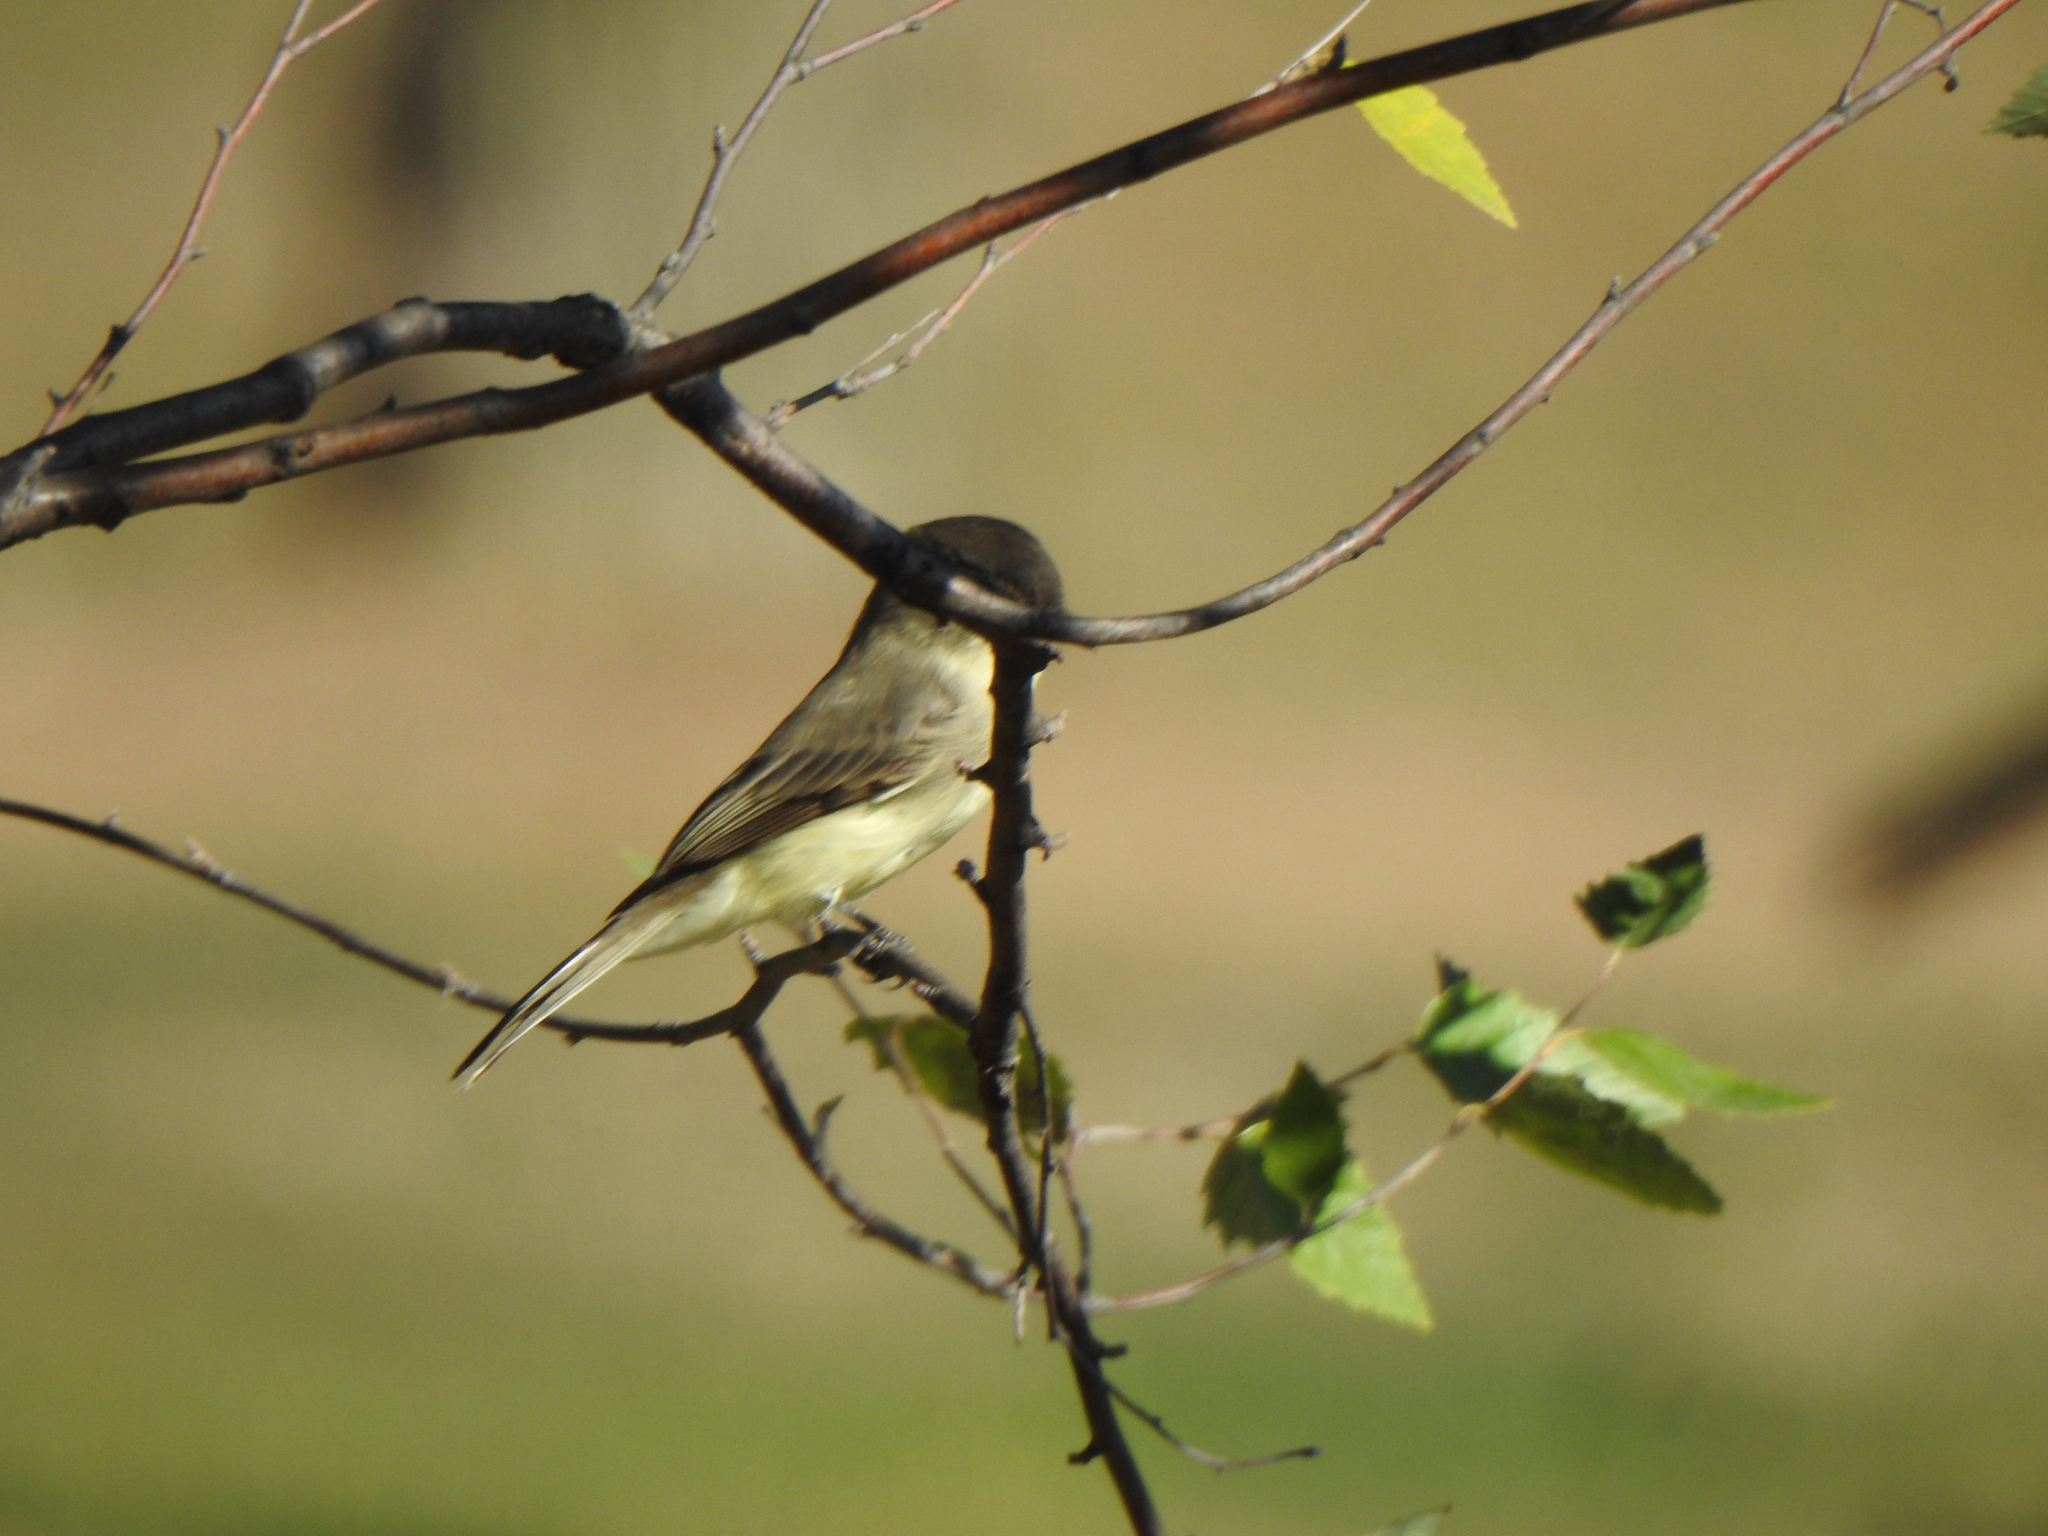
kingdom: Animalia
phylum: Chordata
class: Aves
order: Passeriformes
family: Tyrannidae
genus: Sayornis
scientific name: Sayornis phoebe
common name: Eastern phoebe
